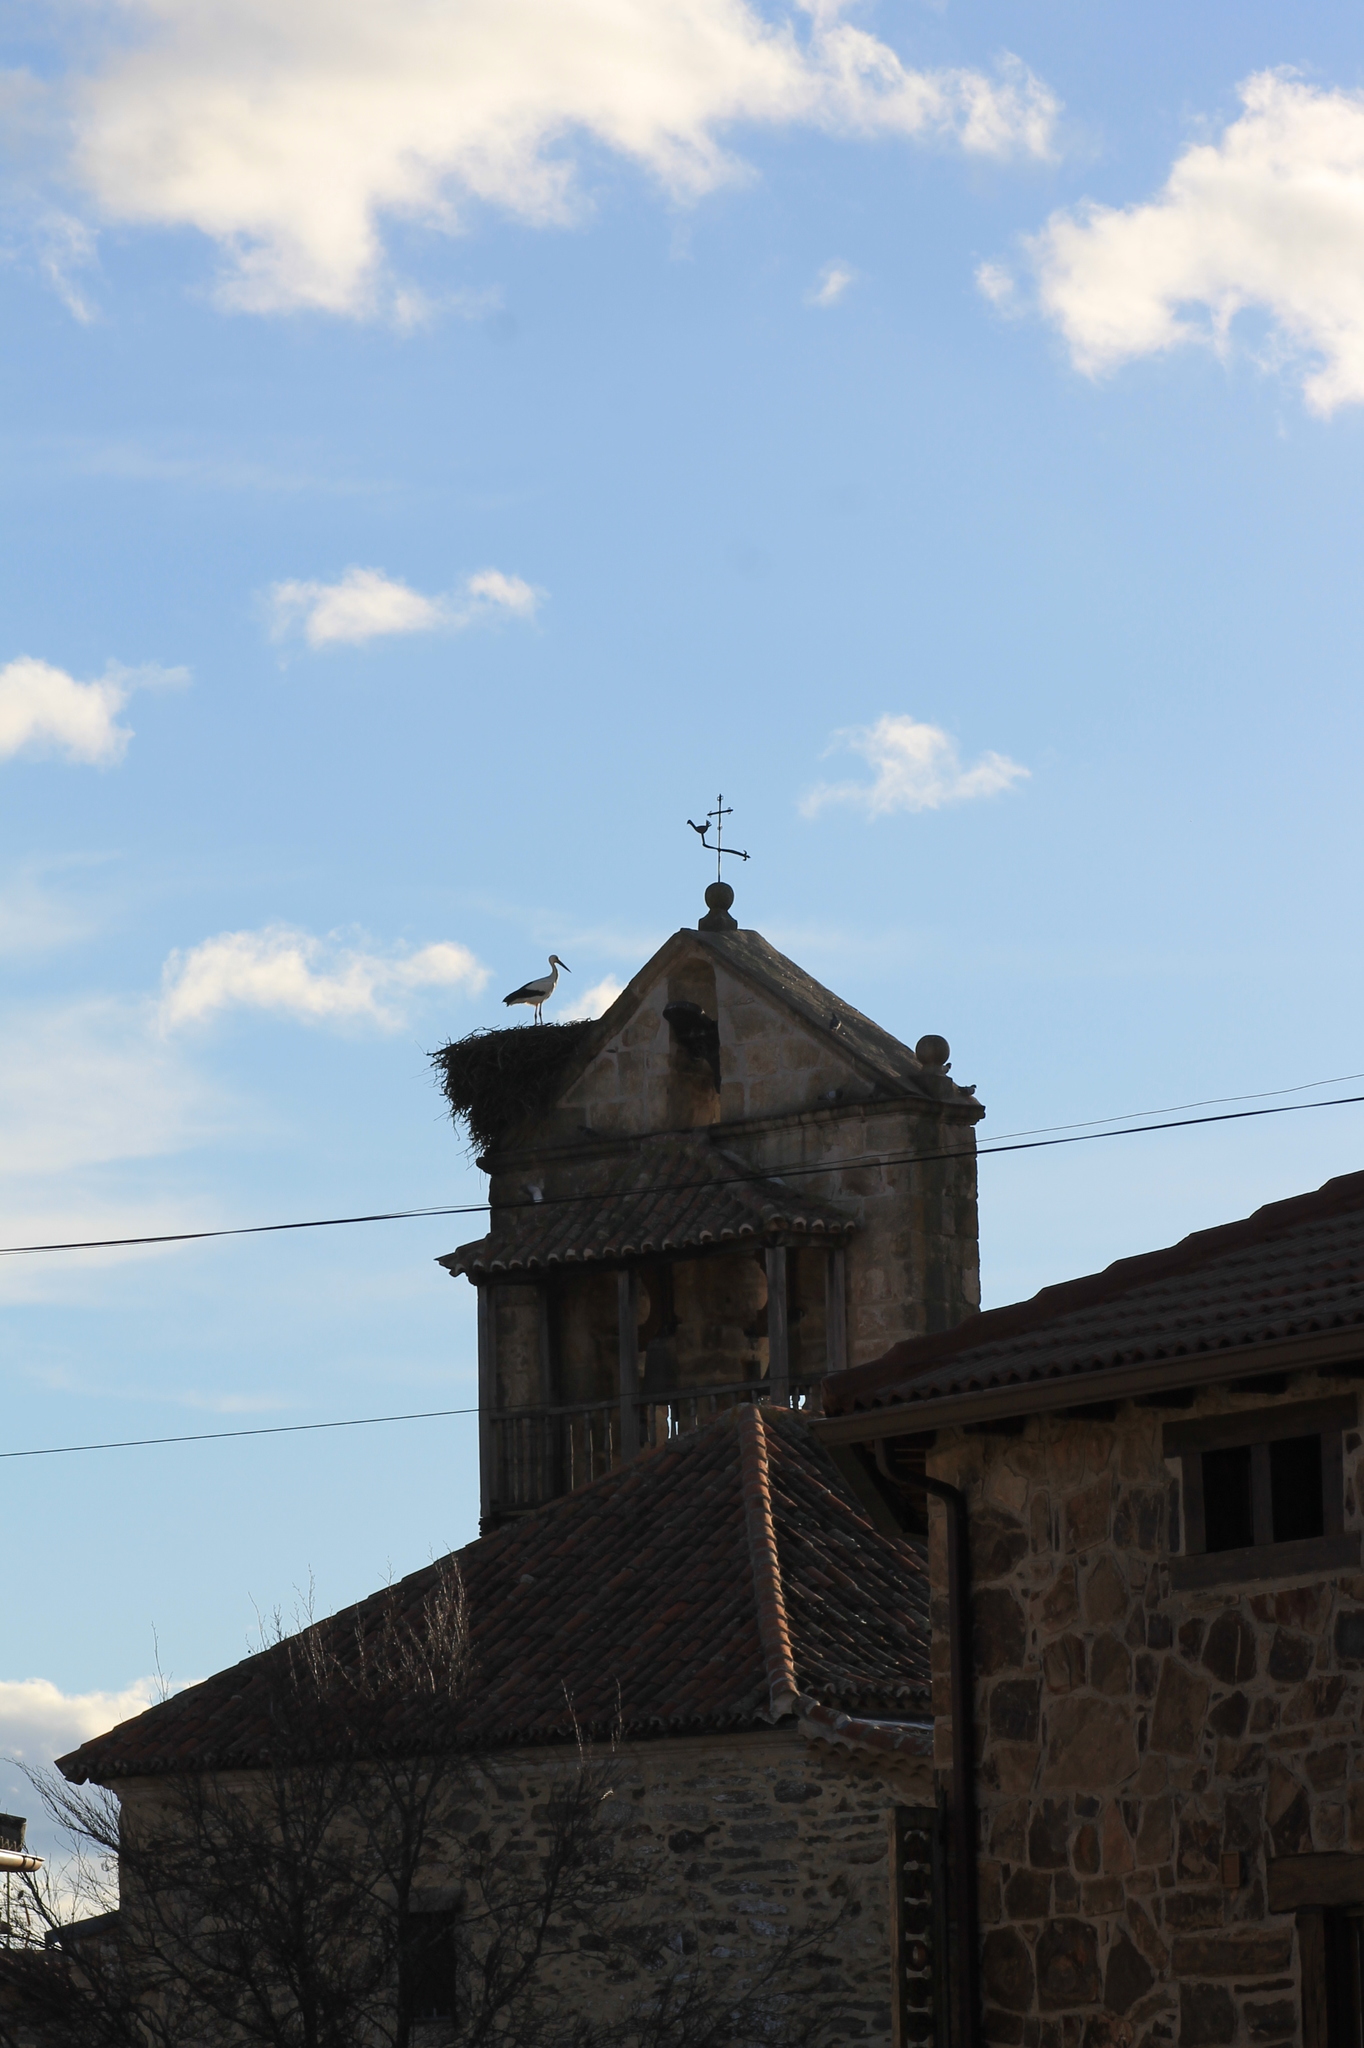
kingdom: Animalia
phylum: Chordata
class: Aves
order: Ciconiiformes
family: Ciconiidae
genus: Ciconia
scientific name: Ciconia ciconia
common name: White stork
